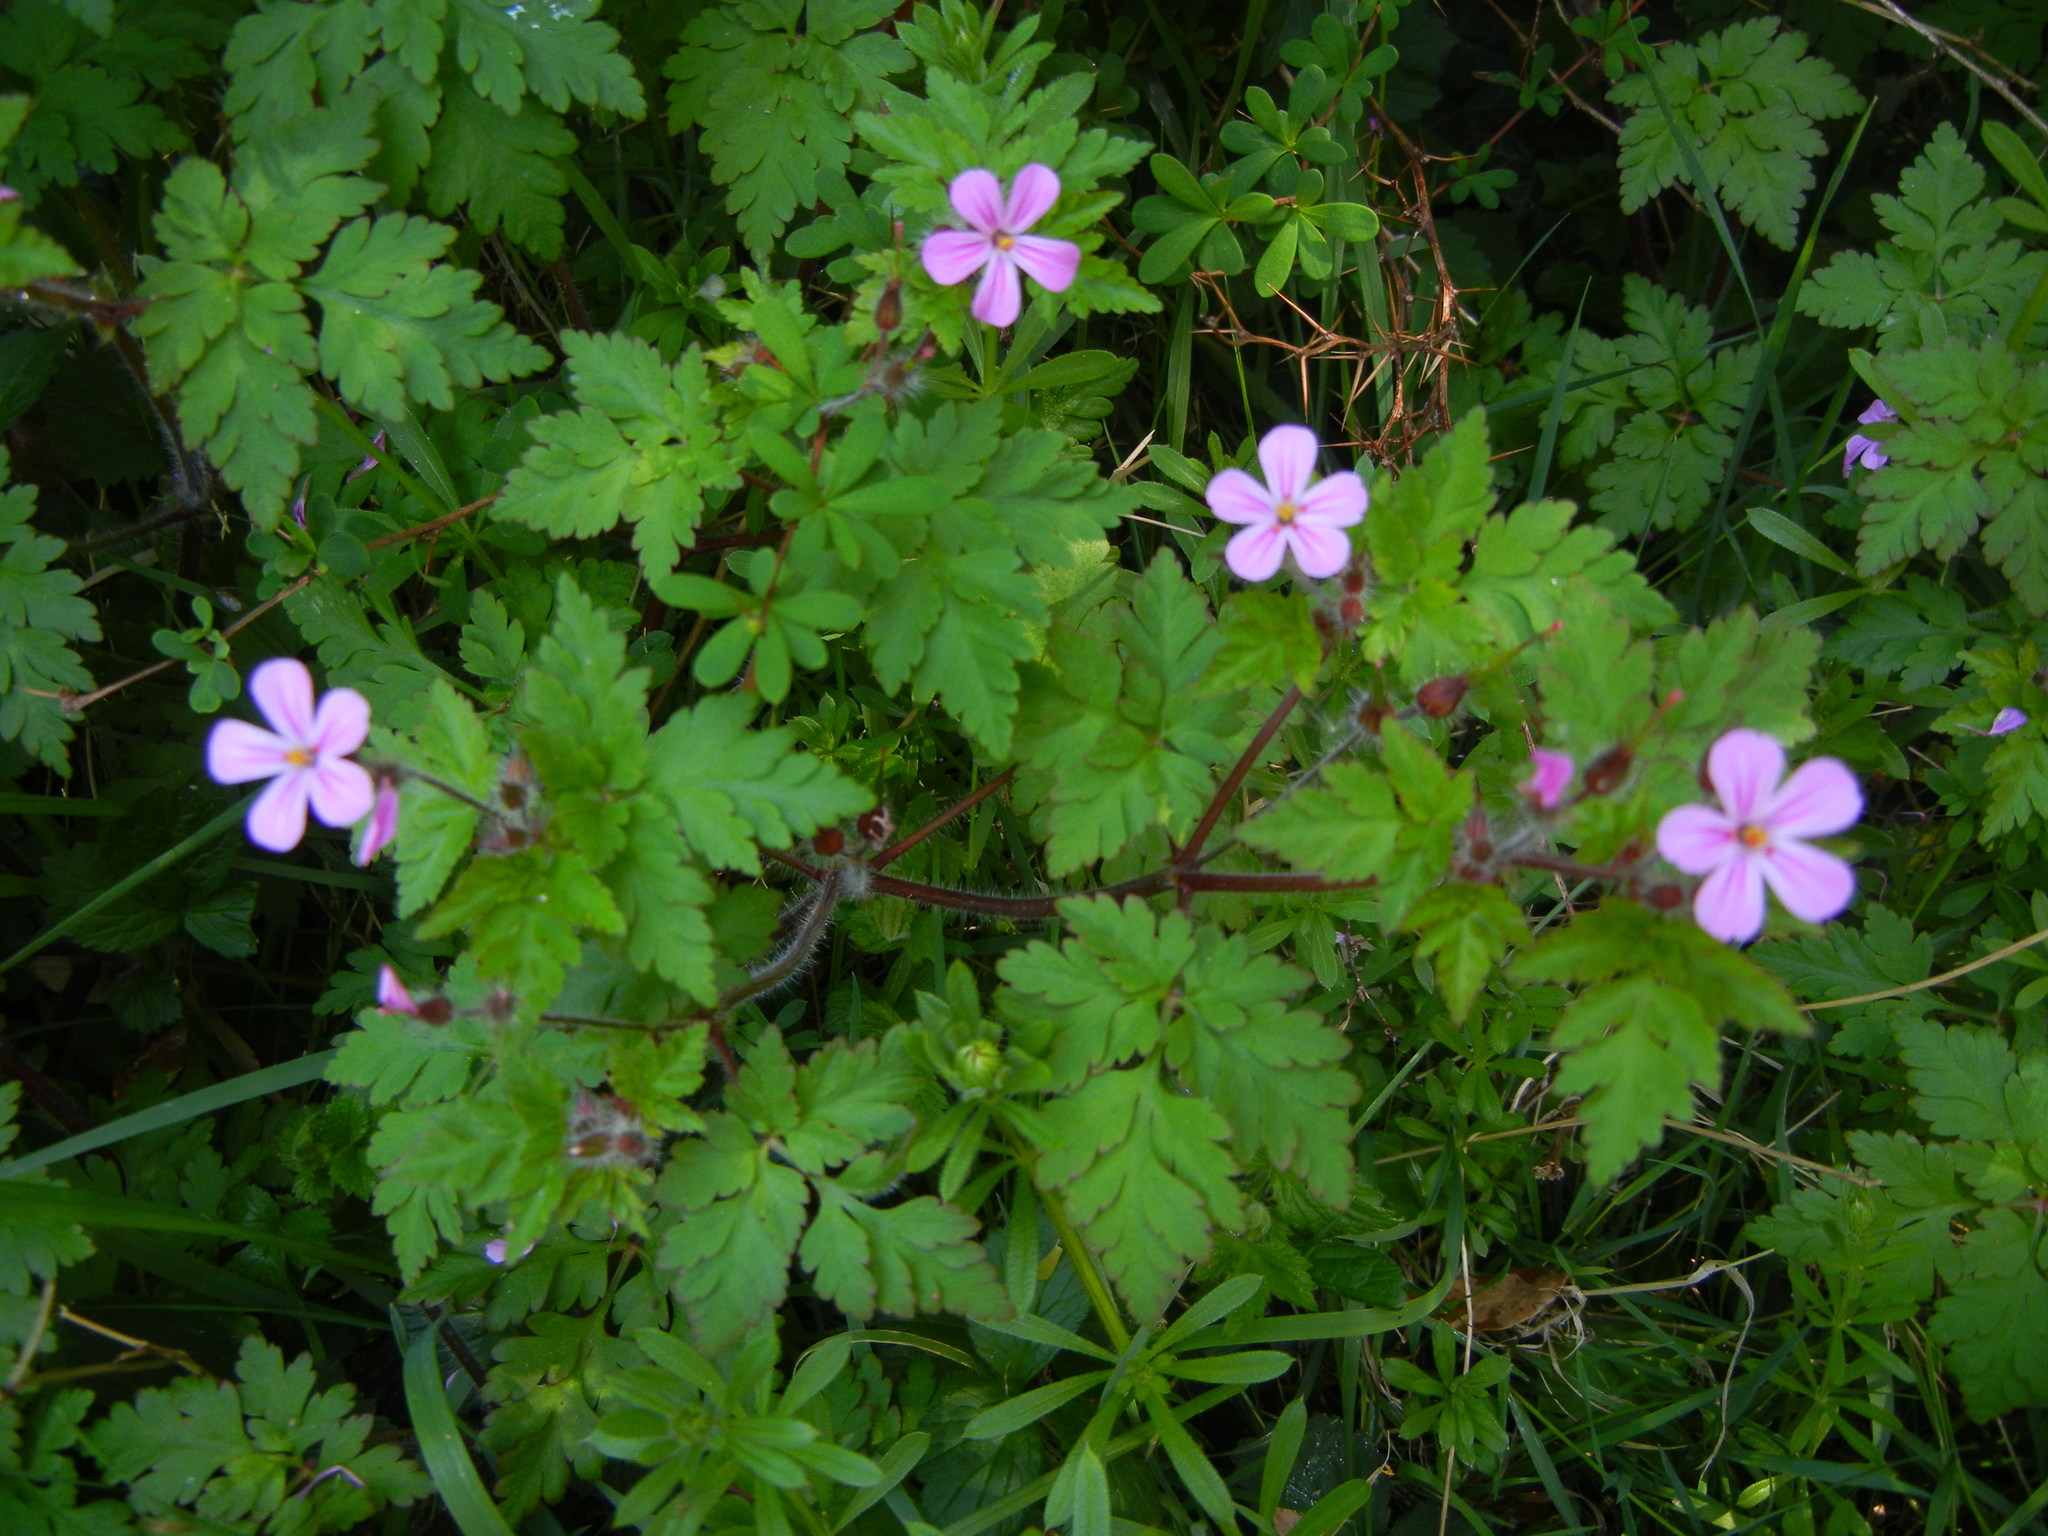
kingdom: Plantae
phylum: Tracheophyta
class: Magnoliopsida
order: Geraniales
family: Geraniaceae
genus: Geranium
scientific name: Geranium robertianum
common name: Herb-robert
